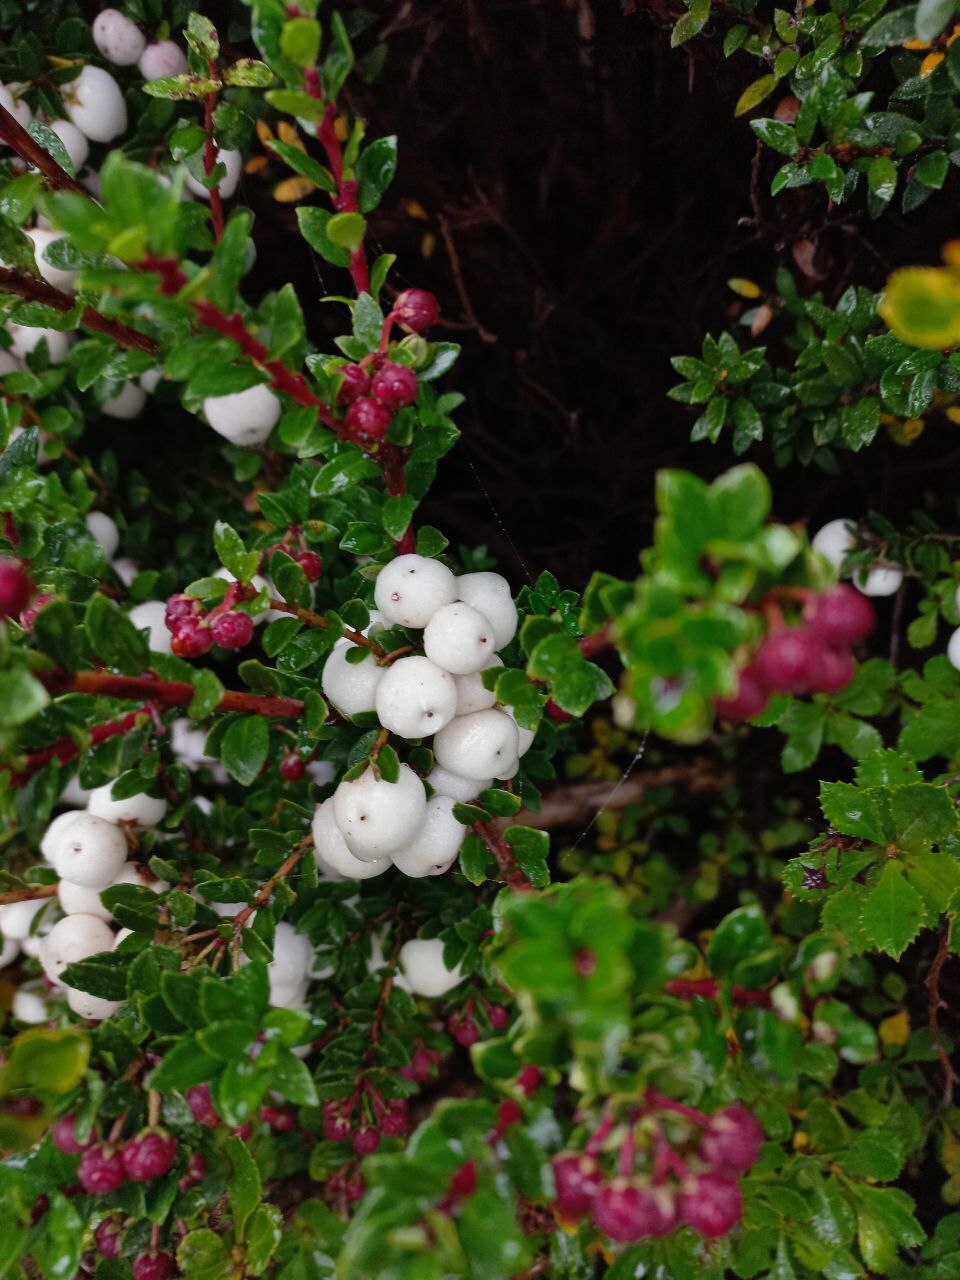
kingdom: Plantae
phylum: Tracheophyta
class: Magnoliopsida
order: Ericales
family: Ericaceae
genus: Gaultheria
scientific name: Gaultheria poeppigii
